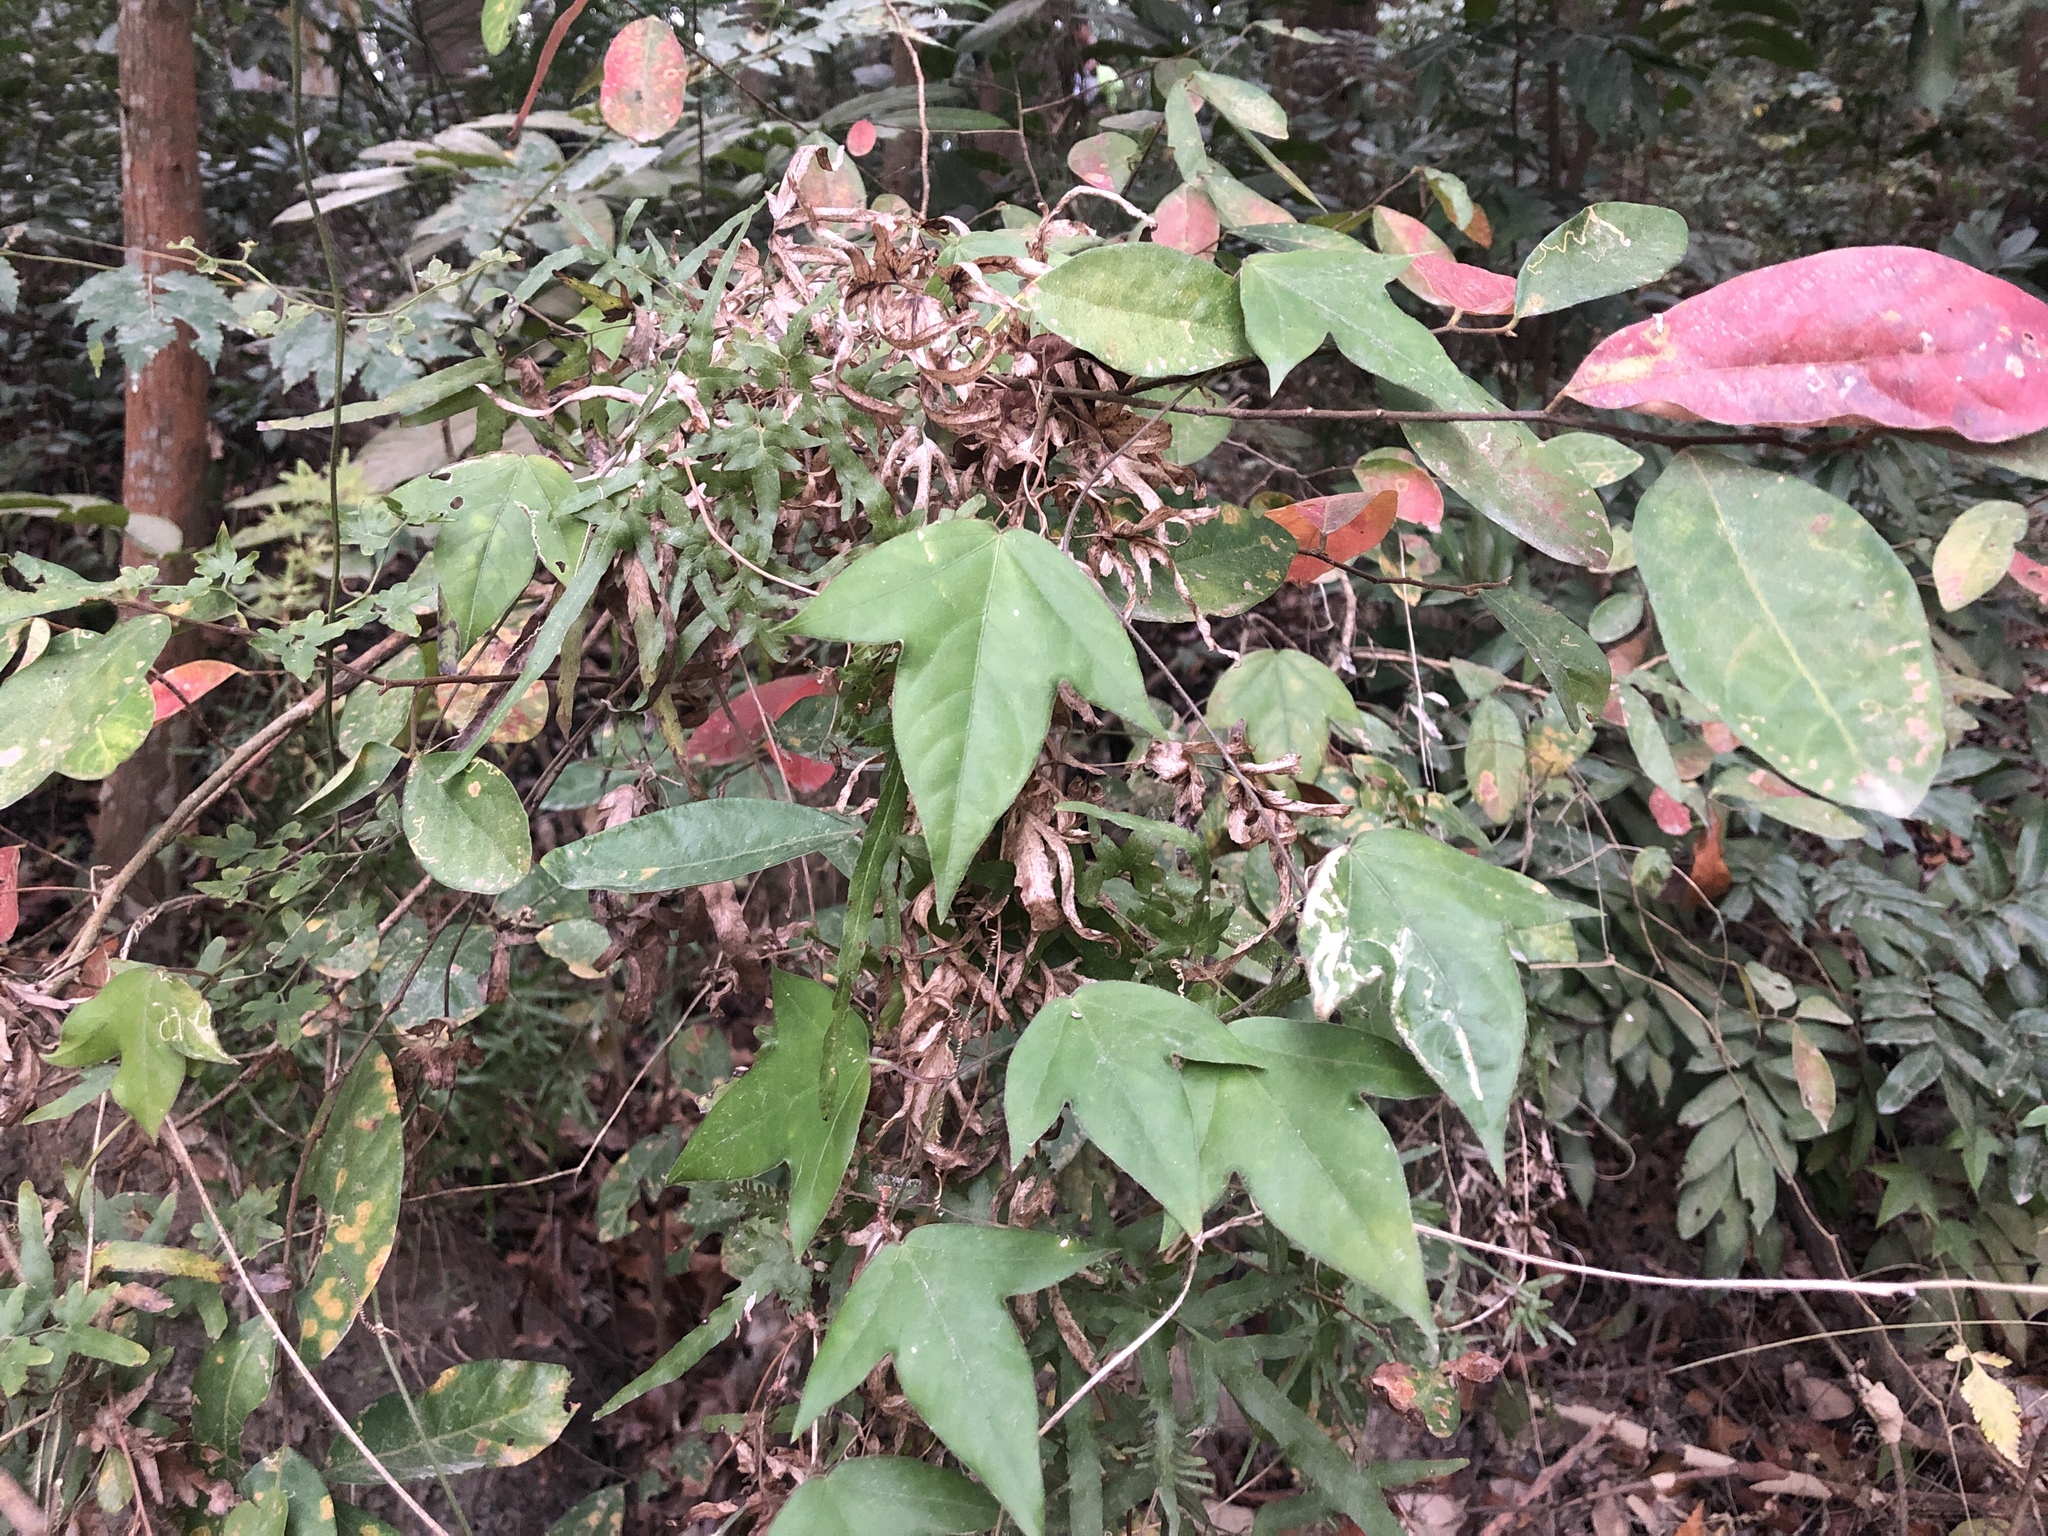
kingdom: Plantae
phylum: Tracheophyta
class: Magnoliopsida
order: Malpighiales
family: Passifloraceae
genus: Passiflora
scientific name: Passiflora suberosa
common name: Wild passionfruit
